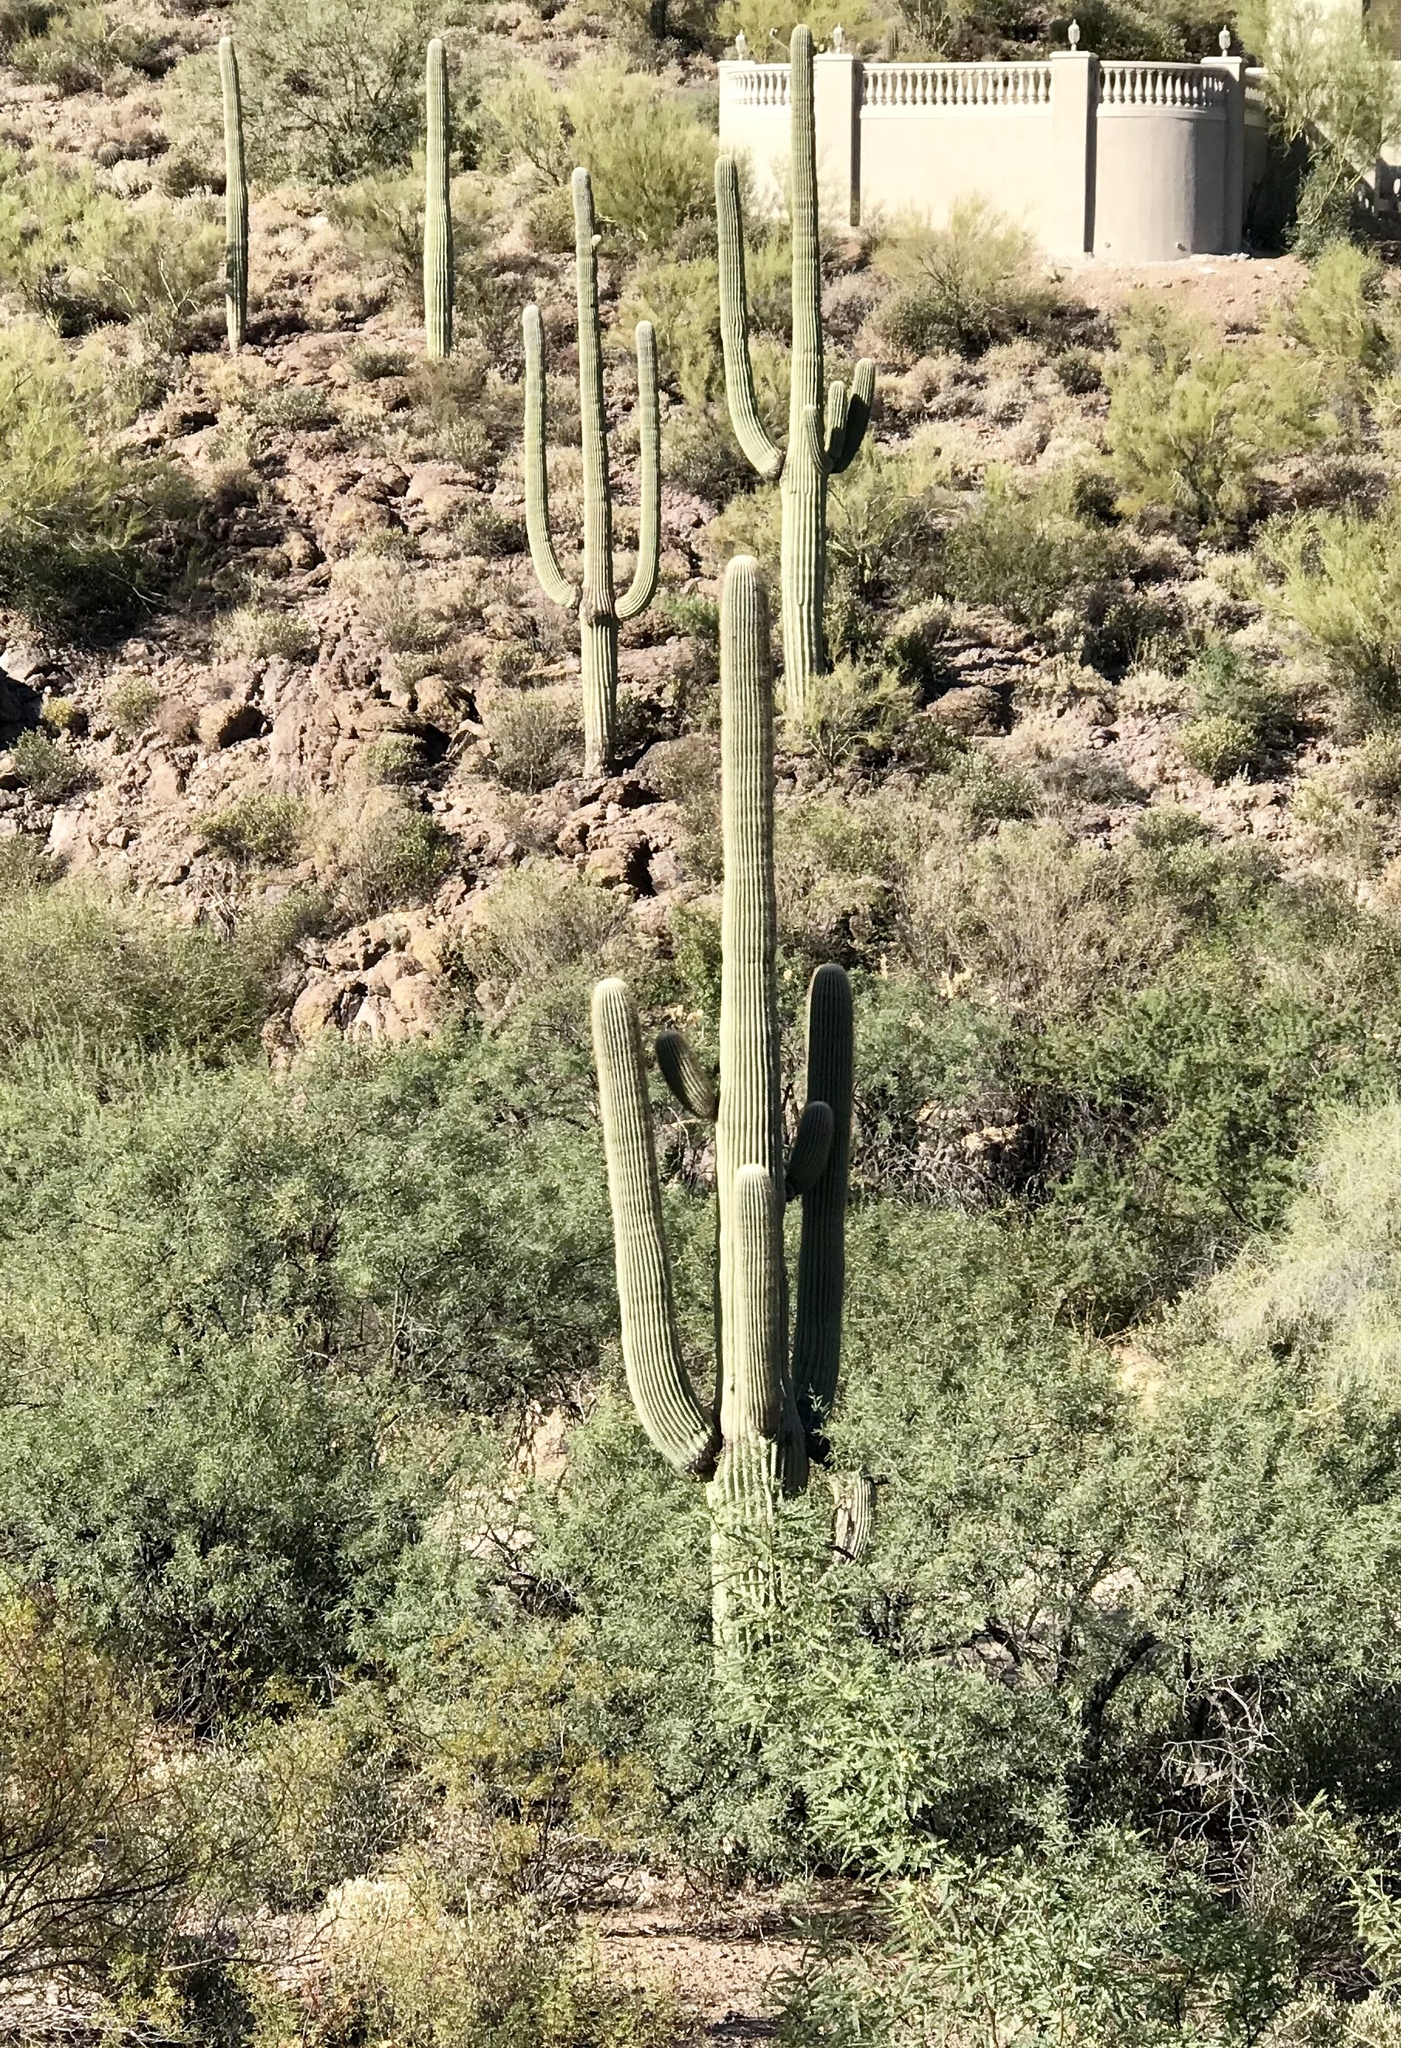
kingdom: Plantae
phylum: Tracheophyta
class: Magnoliopsida
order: Caryophyllales
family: Cactaceae
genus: Carnegiea
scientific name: Carnegiea gigantea
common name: Saguaro
